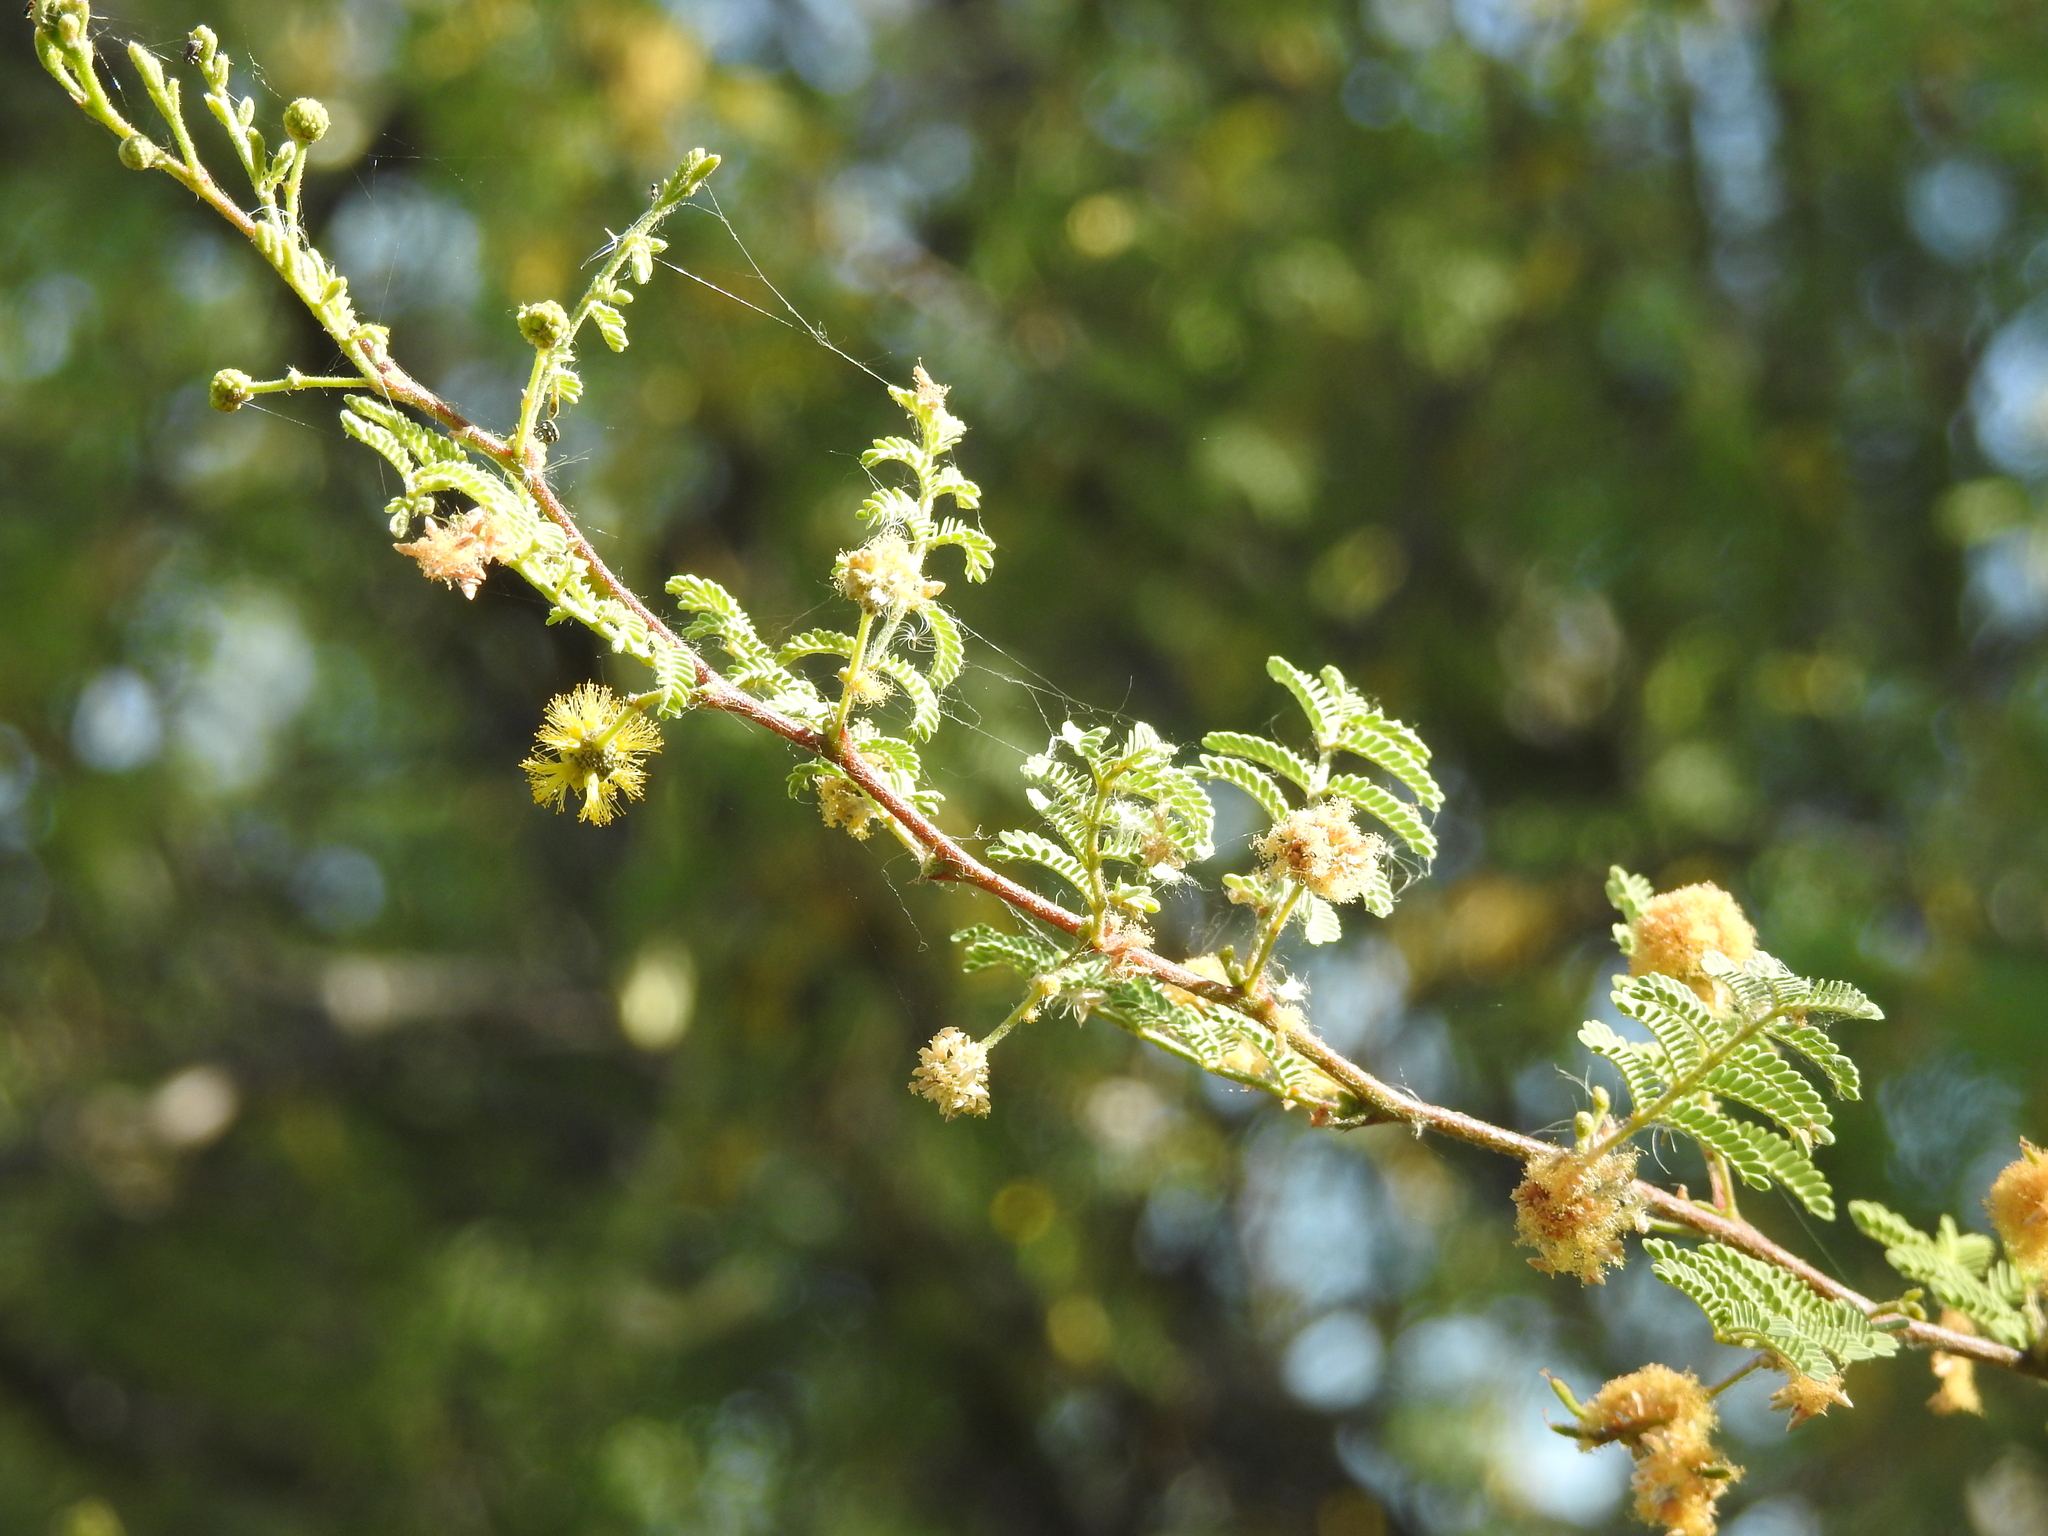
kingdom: Plantae
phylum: Tracheophyta
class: Magnoliopsida
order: Fabales
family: Fabaceae
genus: Vachellia
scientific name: Vachellia constricta
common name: Mescat acacia
